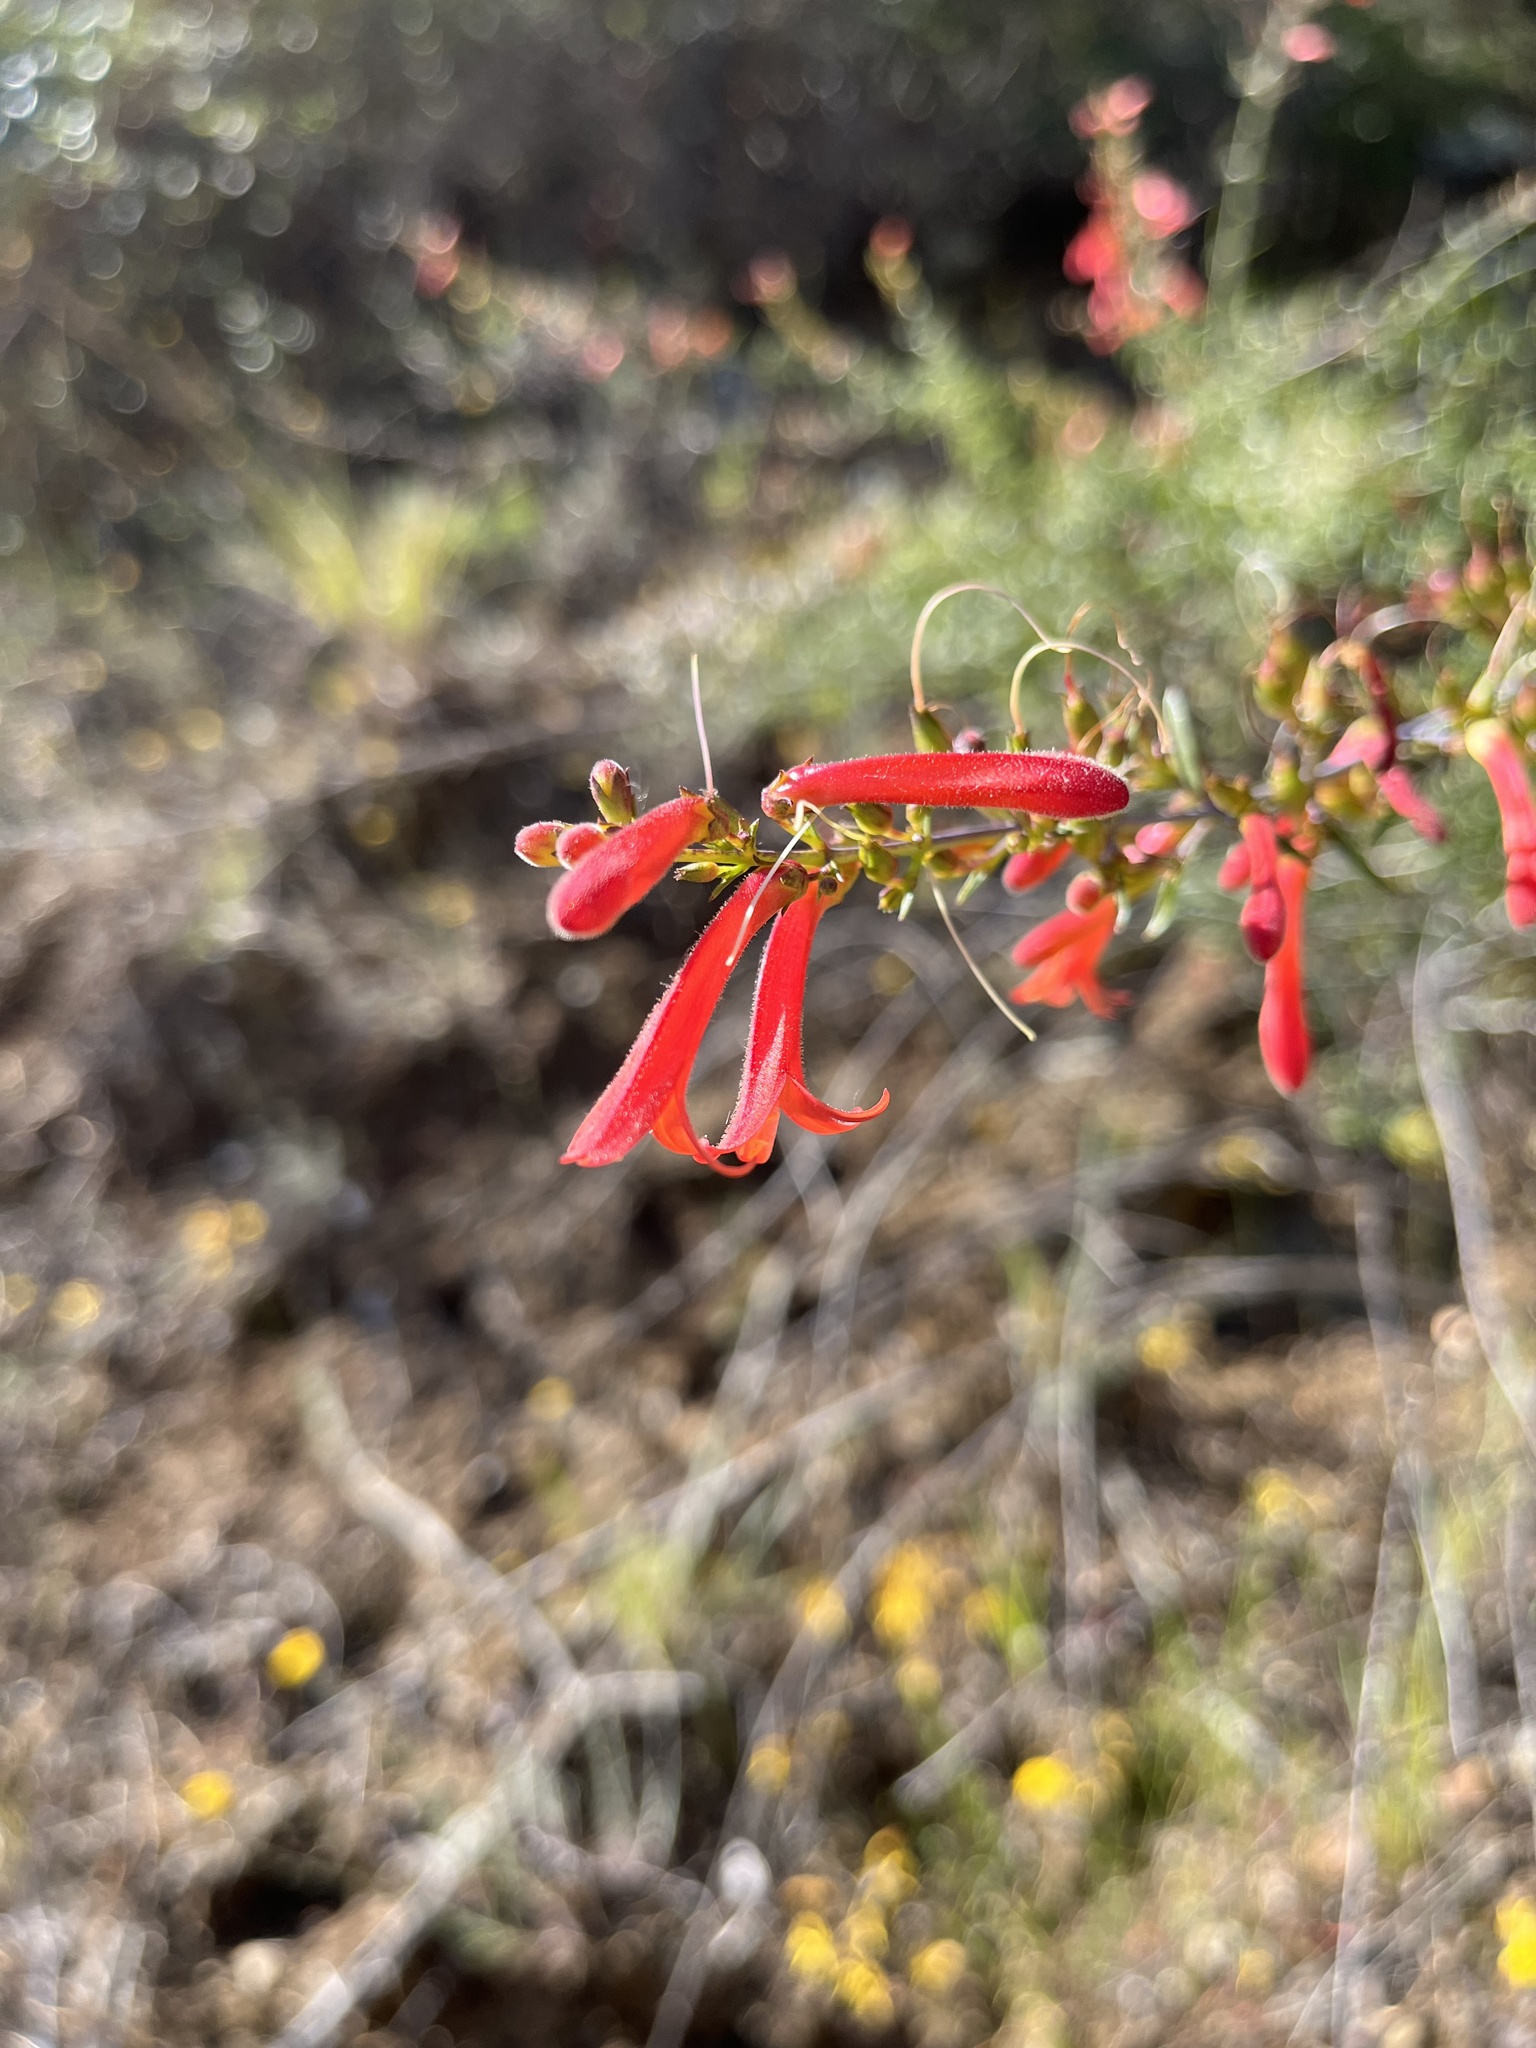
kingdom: Plantae
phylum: Tracheophyta
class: Magnoliopsida
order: Lamiales
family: Plantaginaceae
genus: Keckiella
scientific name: Keckiella ternata
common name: Scarlet keckiella
